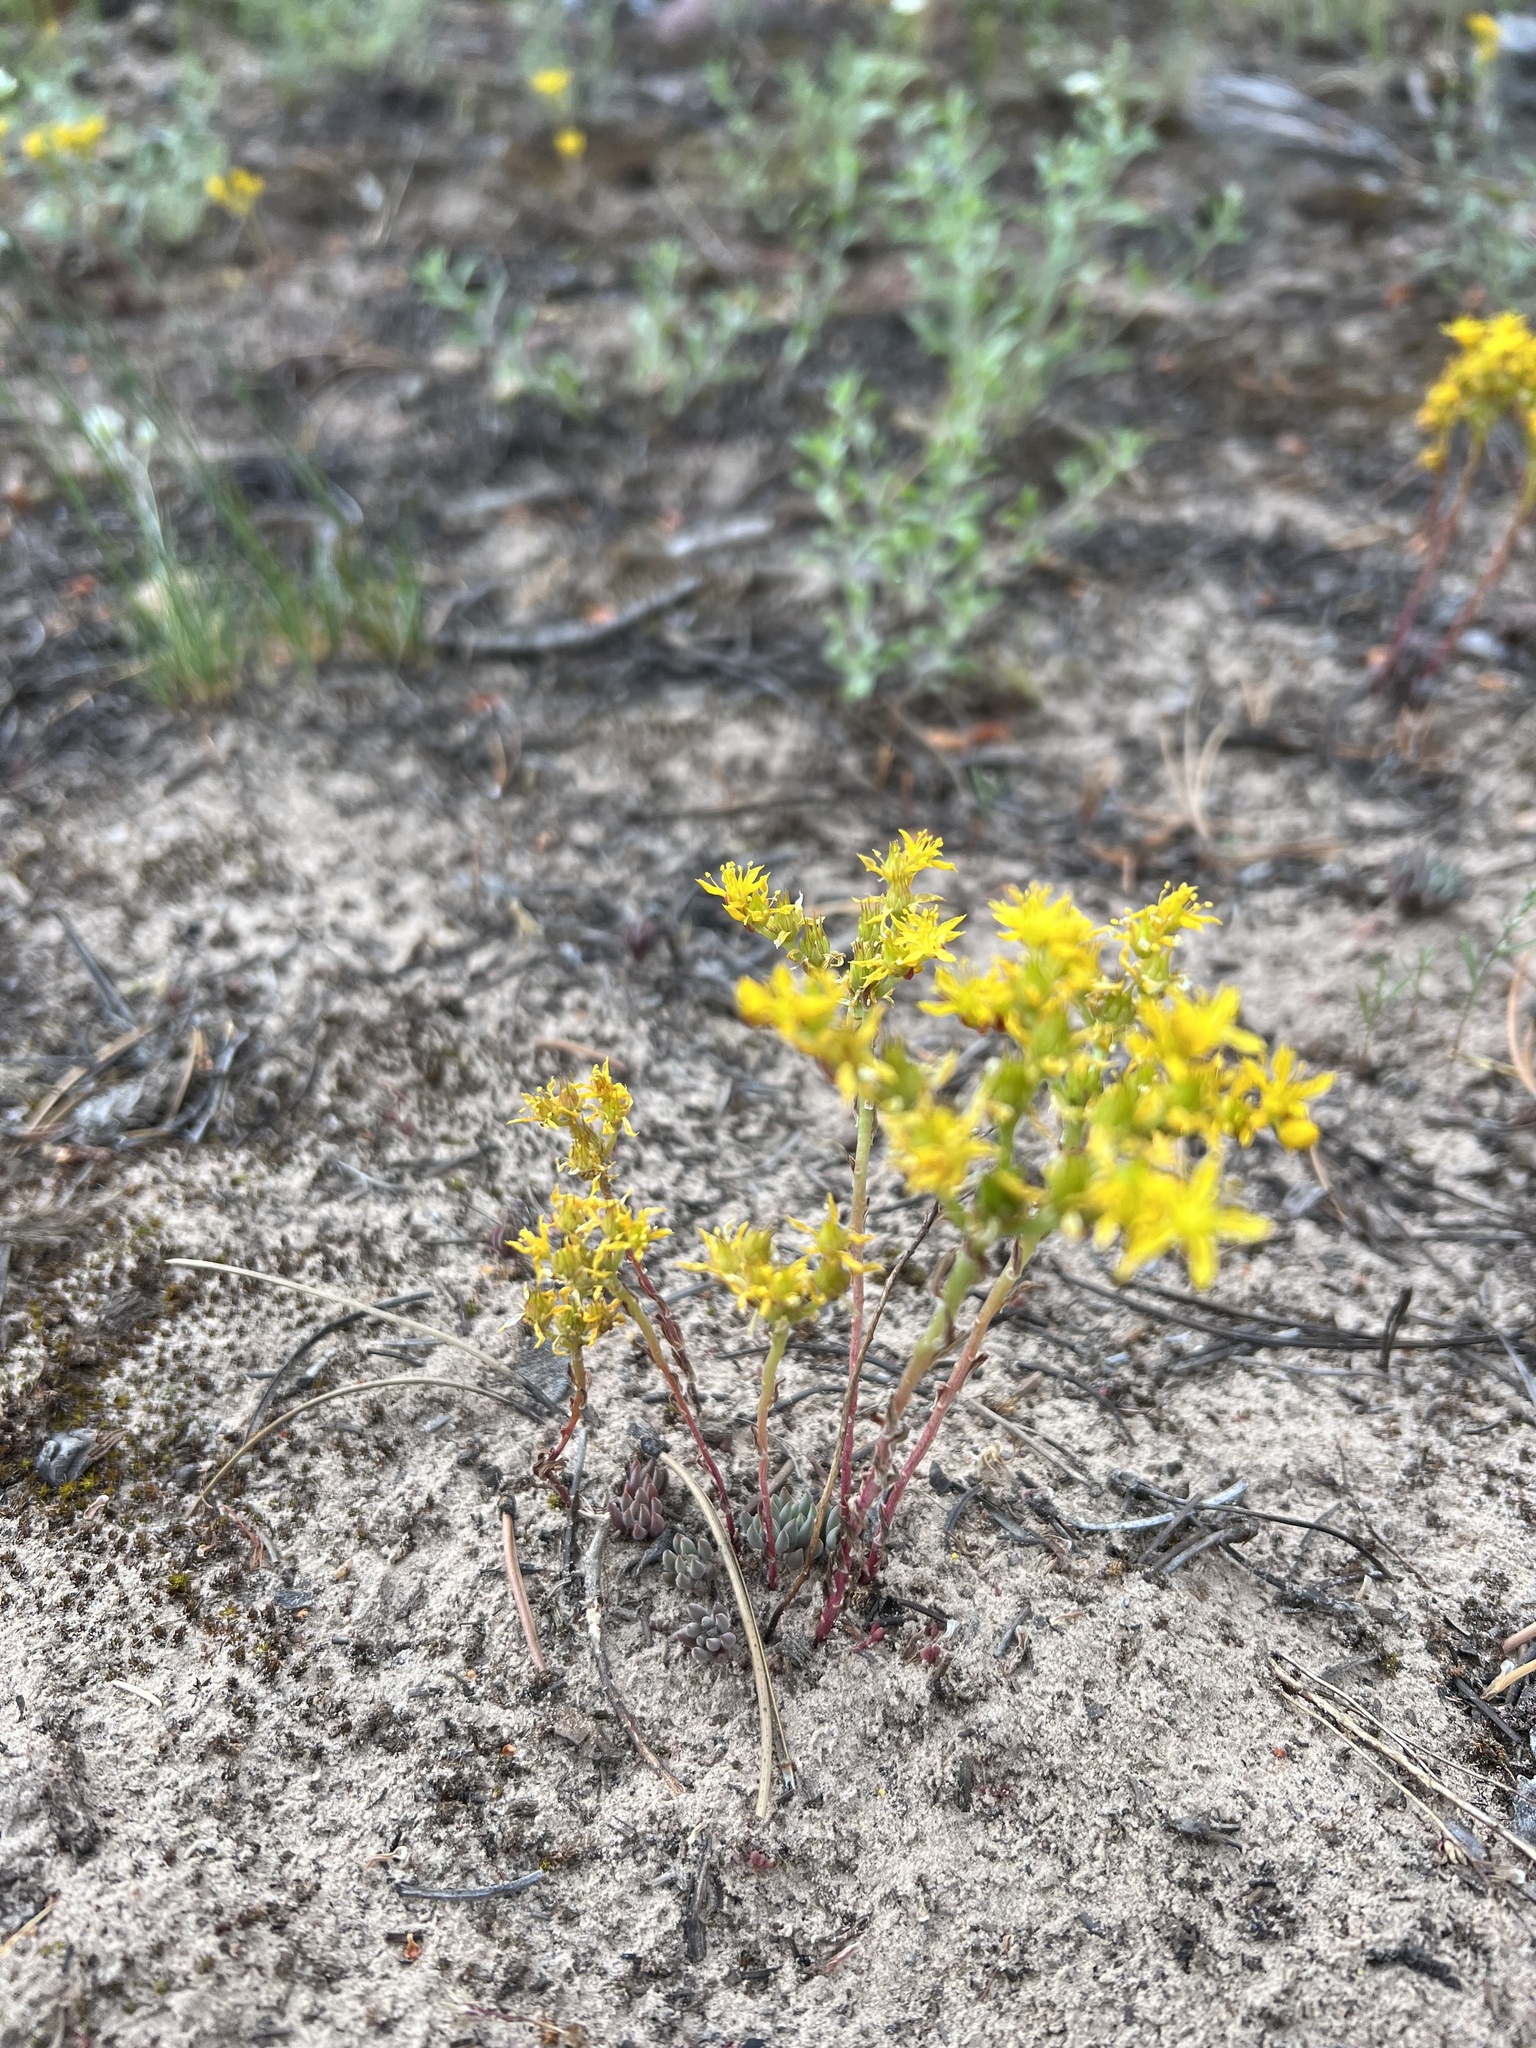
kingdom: Plantae
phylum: Tracheophyta
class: Magnoliopsida
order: Saxifragales
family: Crassulaceae
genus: Sedum
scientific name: Sedum lanceolatum
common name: Common stonecrop
